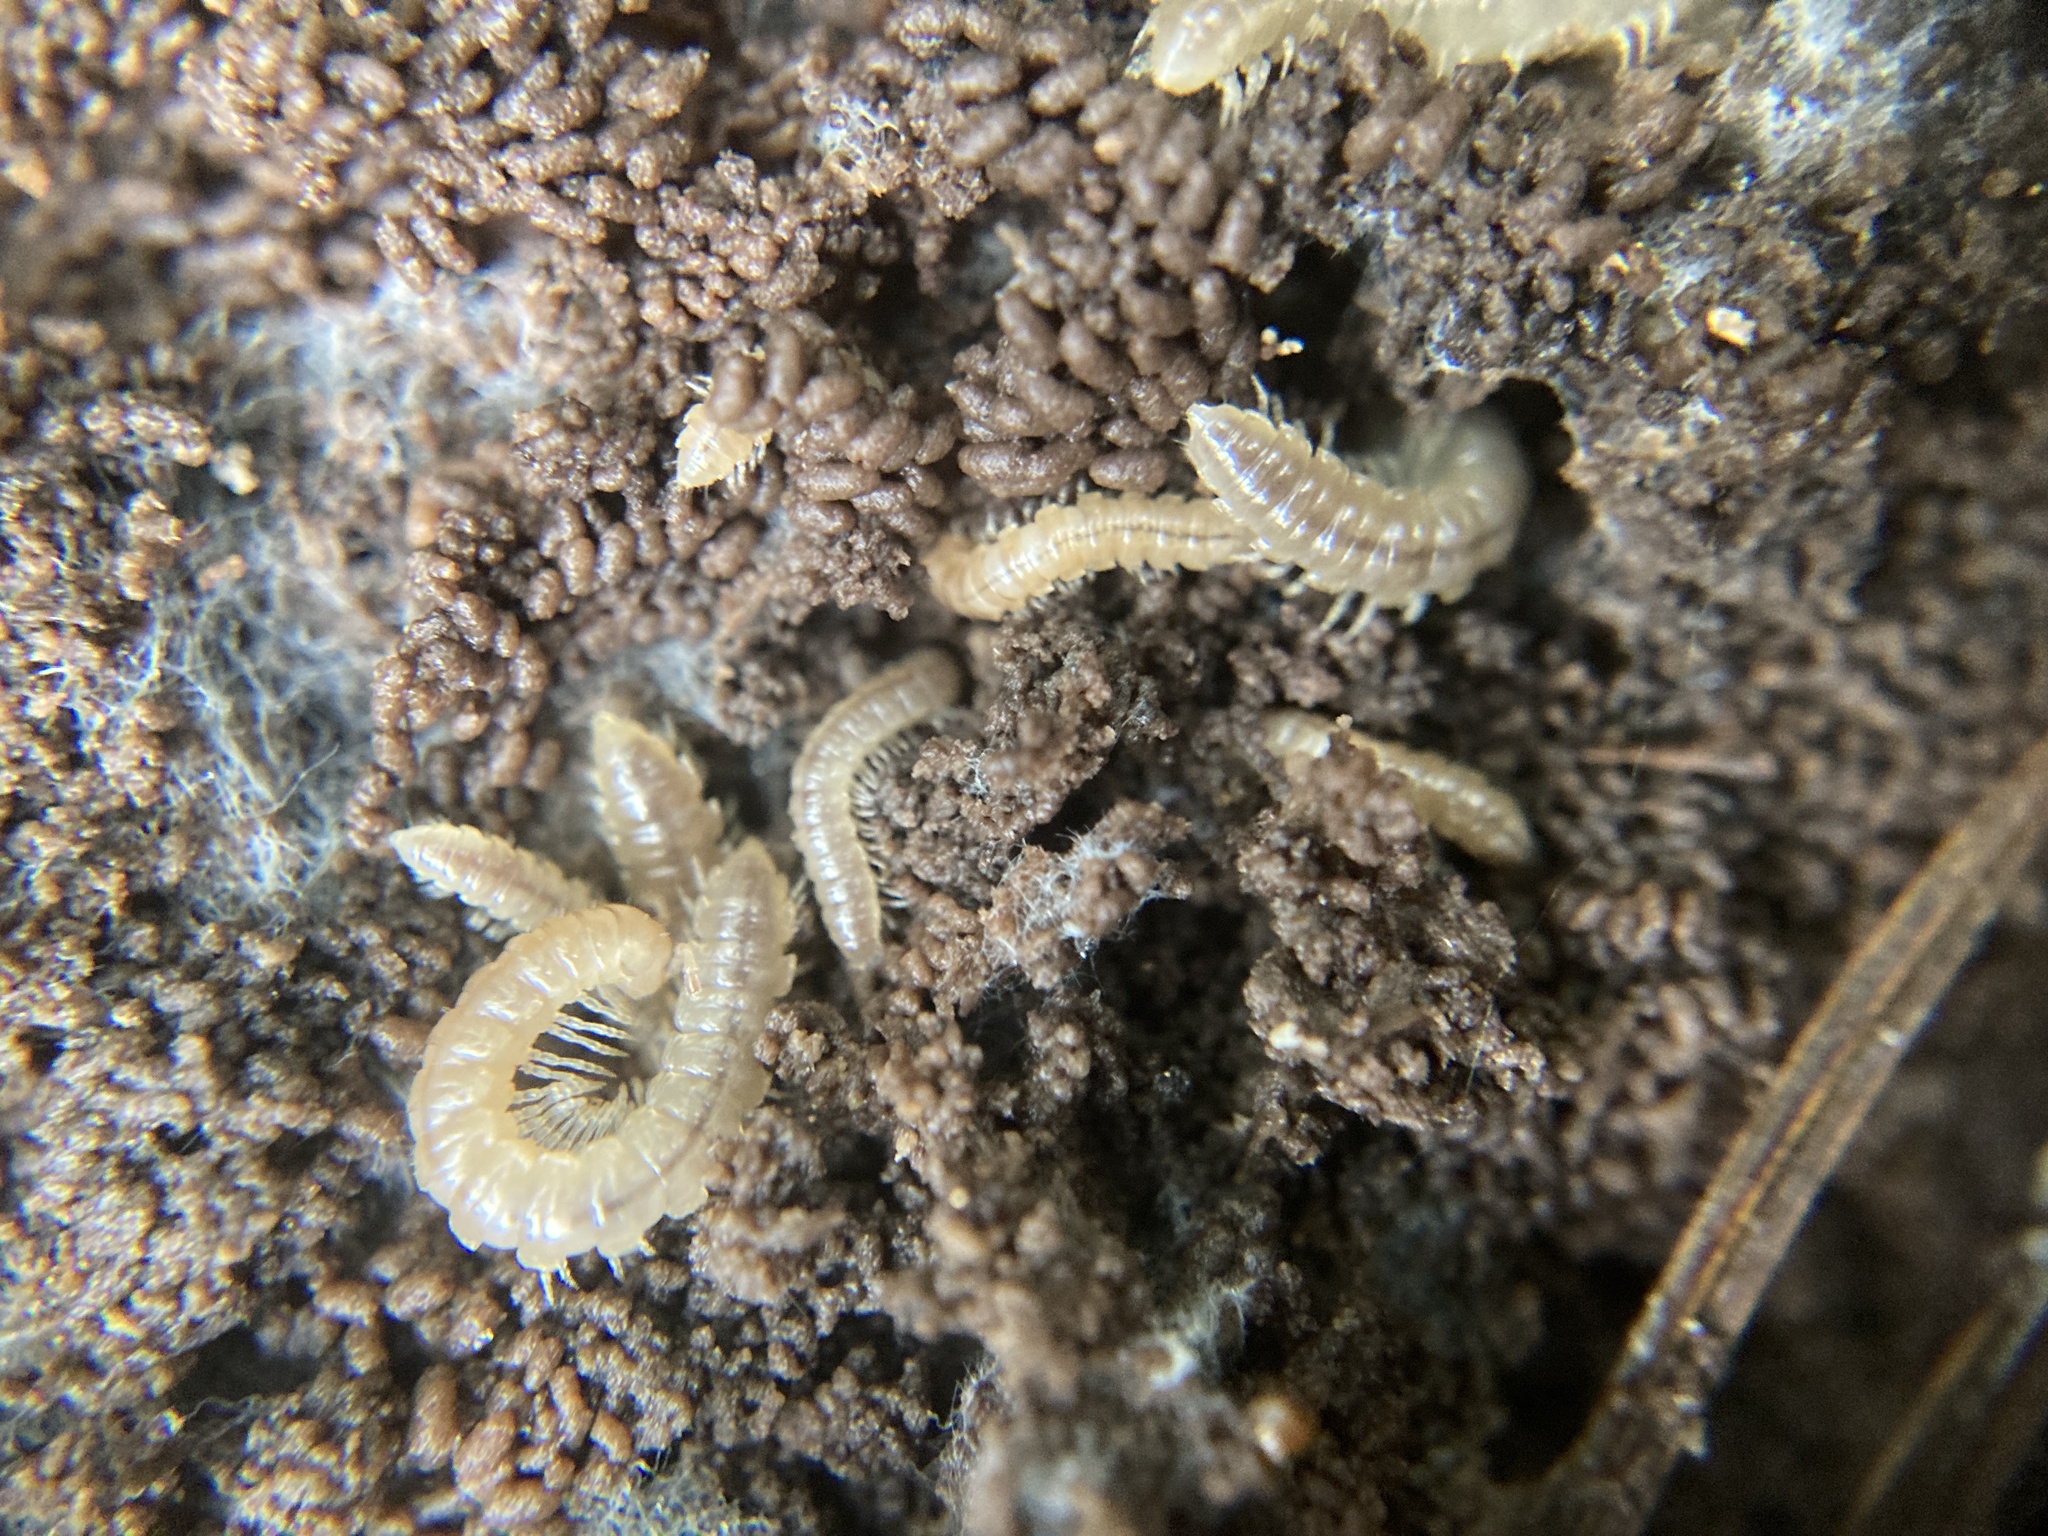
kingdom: Animalia
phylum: Arthropoda
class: Diplopoda
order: Polydesmida
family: Paradoxosomatidae
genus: Oxidus
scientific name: Oxidus gracilis
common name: Greenhouse millipede
